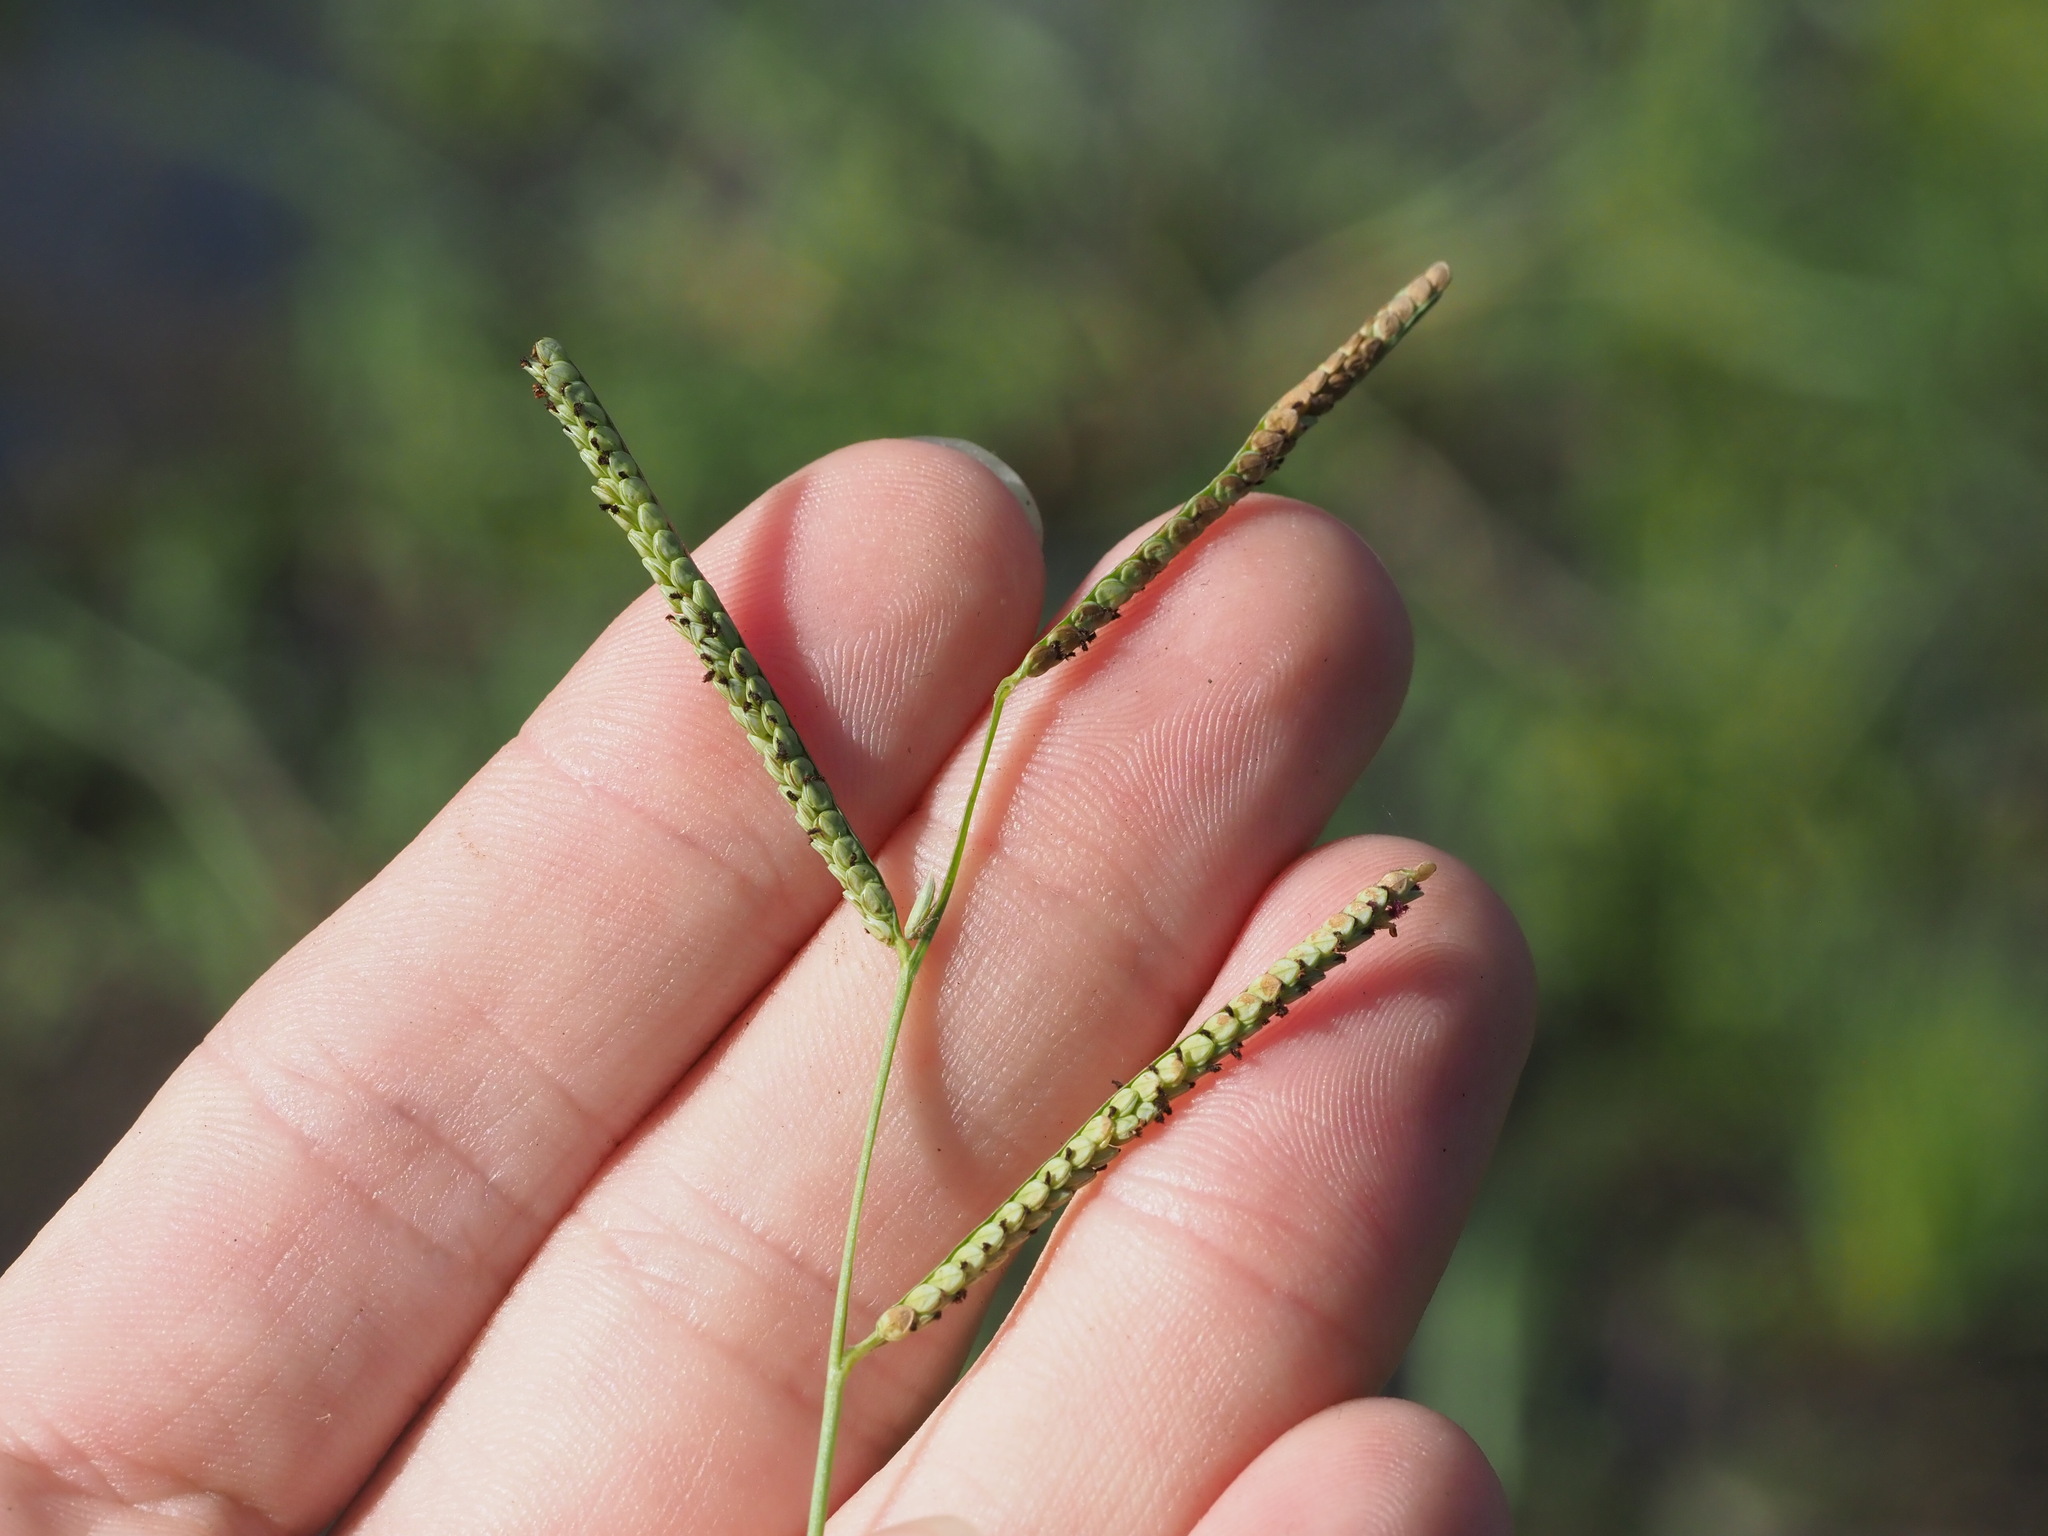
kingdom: Plantae
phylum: Tracheophyta
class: Liliopsida
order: Poales
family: Poaceae
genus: Paspalum
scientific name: Paspalum scrobiculatum
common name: Kodo millet
